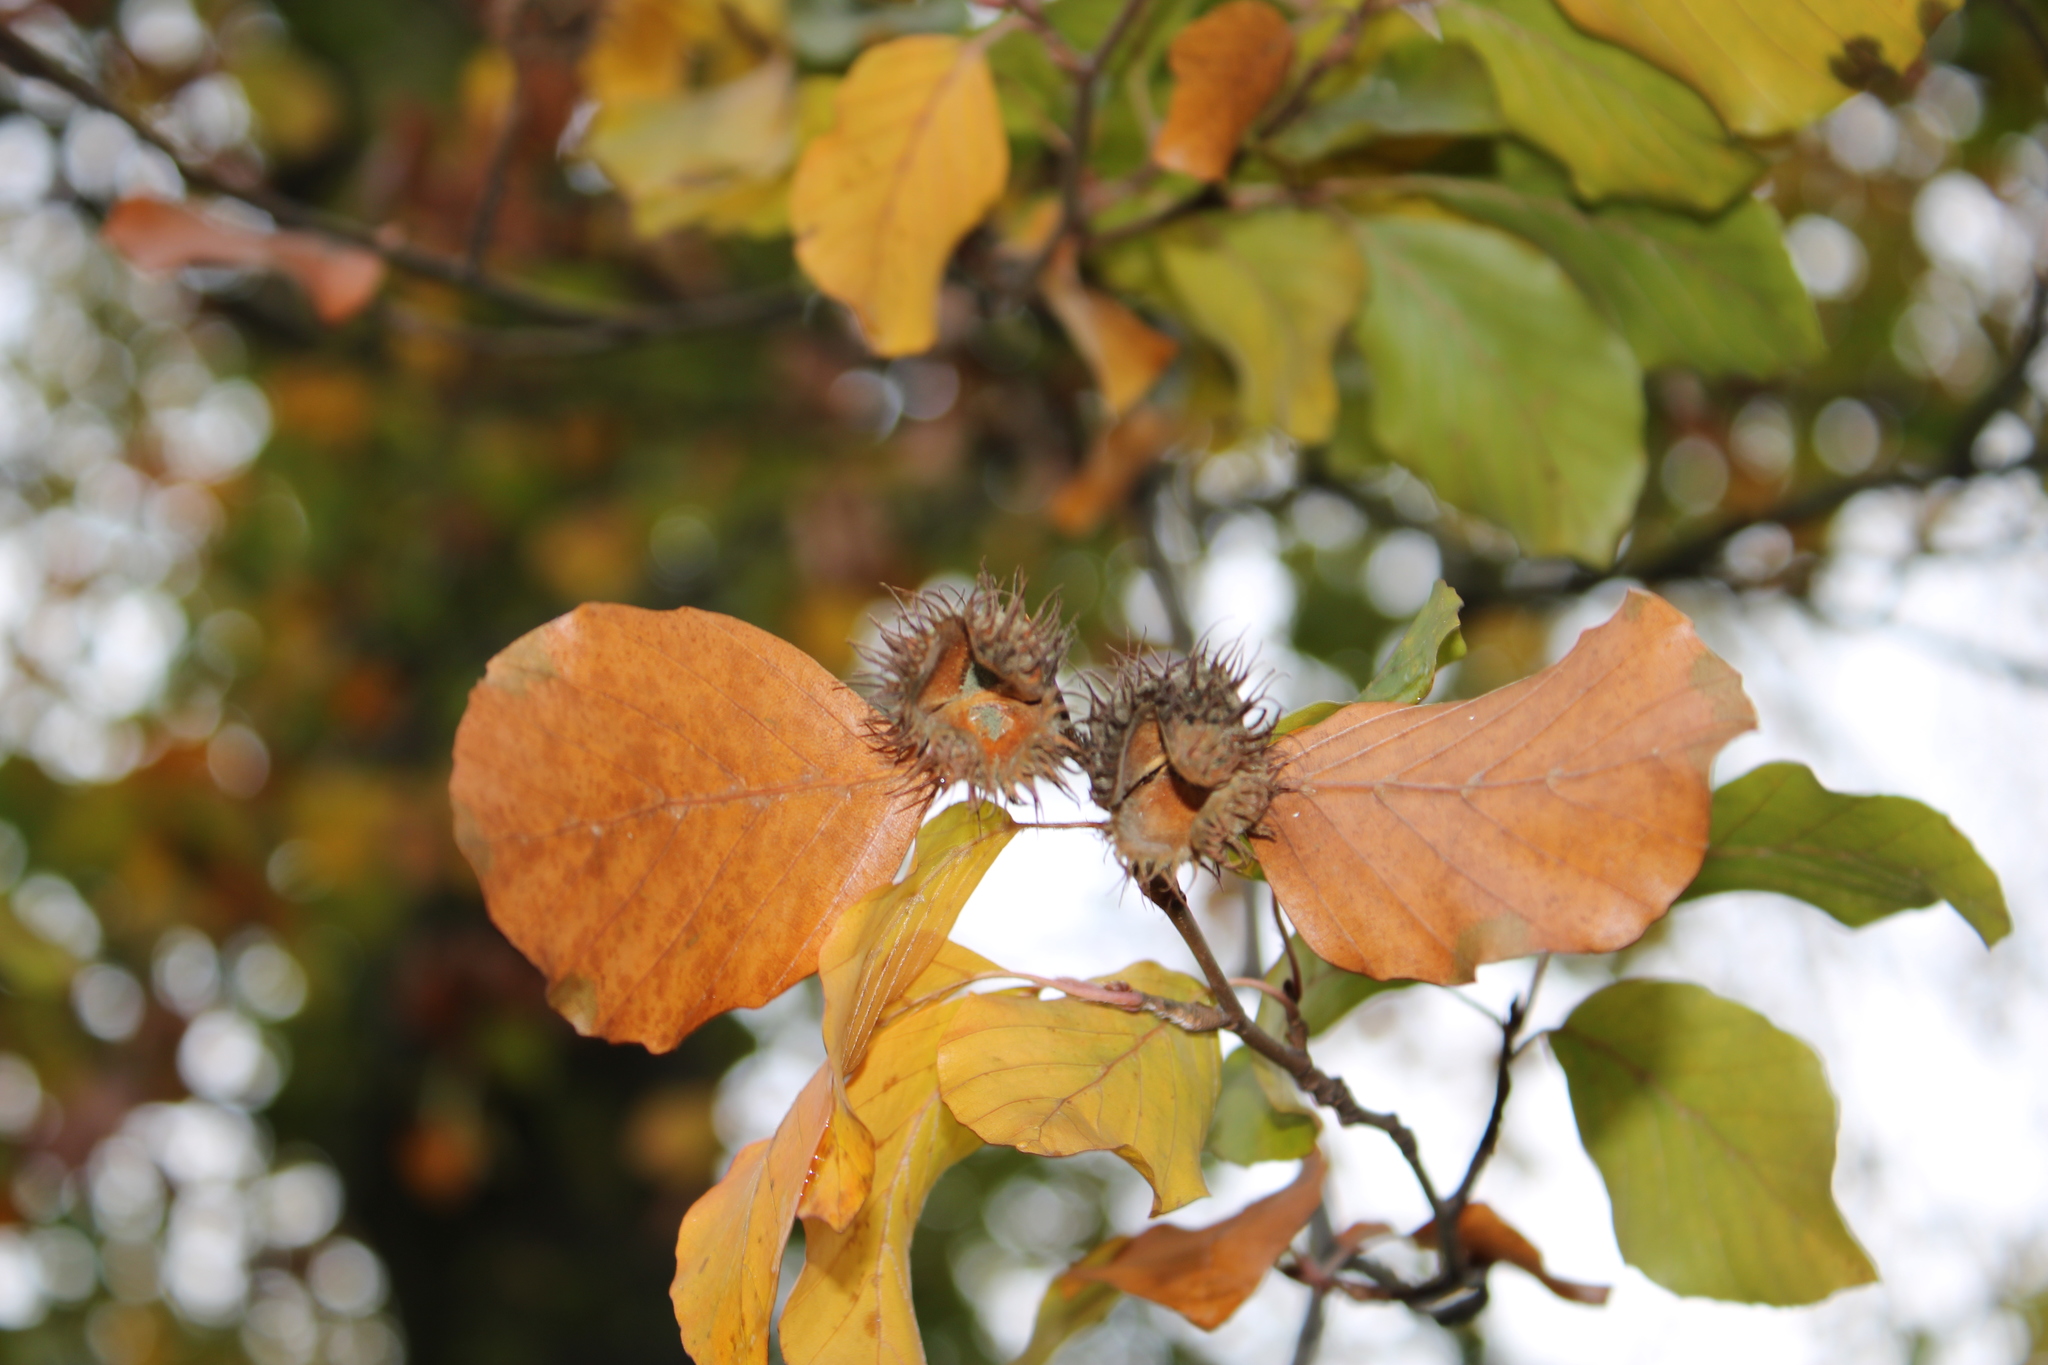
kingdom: Plantae
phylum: Tracheophyta
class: Magnoliopsida
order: Fagales
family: Fagaceae
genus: Fagus
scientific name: Fagus sylvatica
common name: Beech
